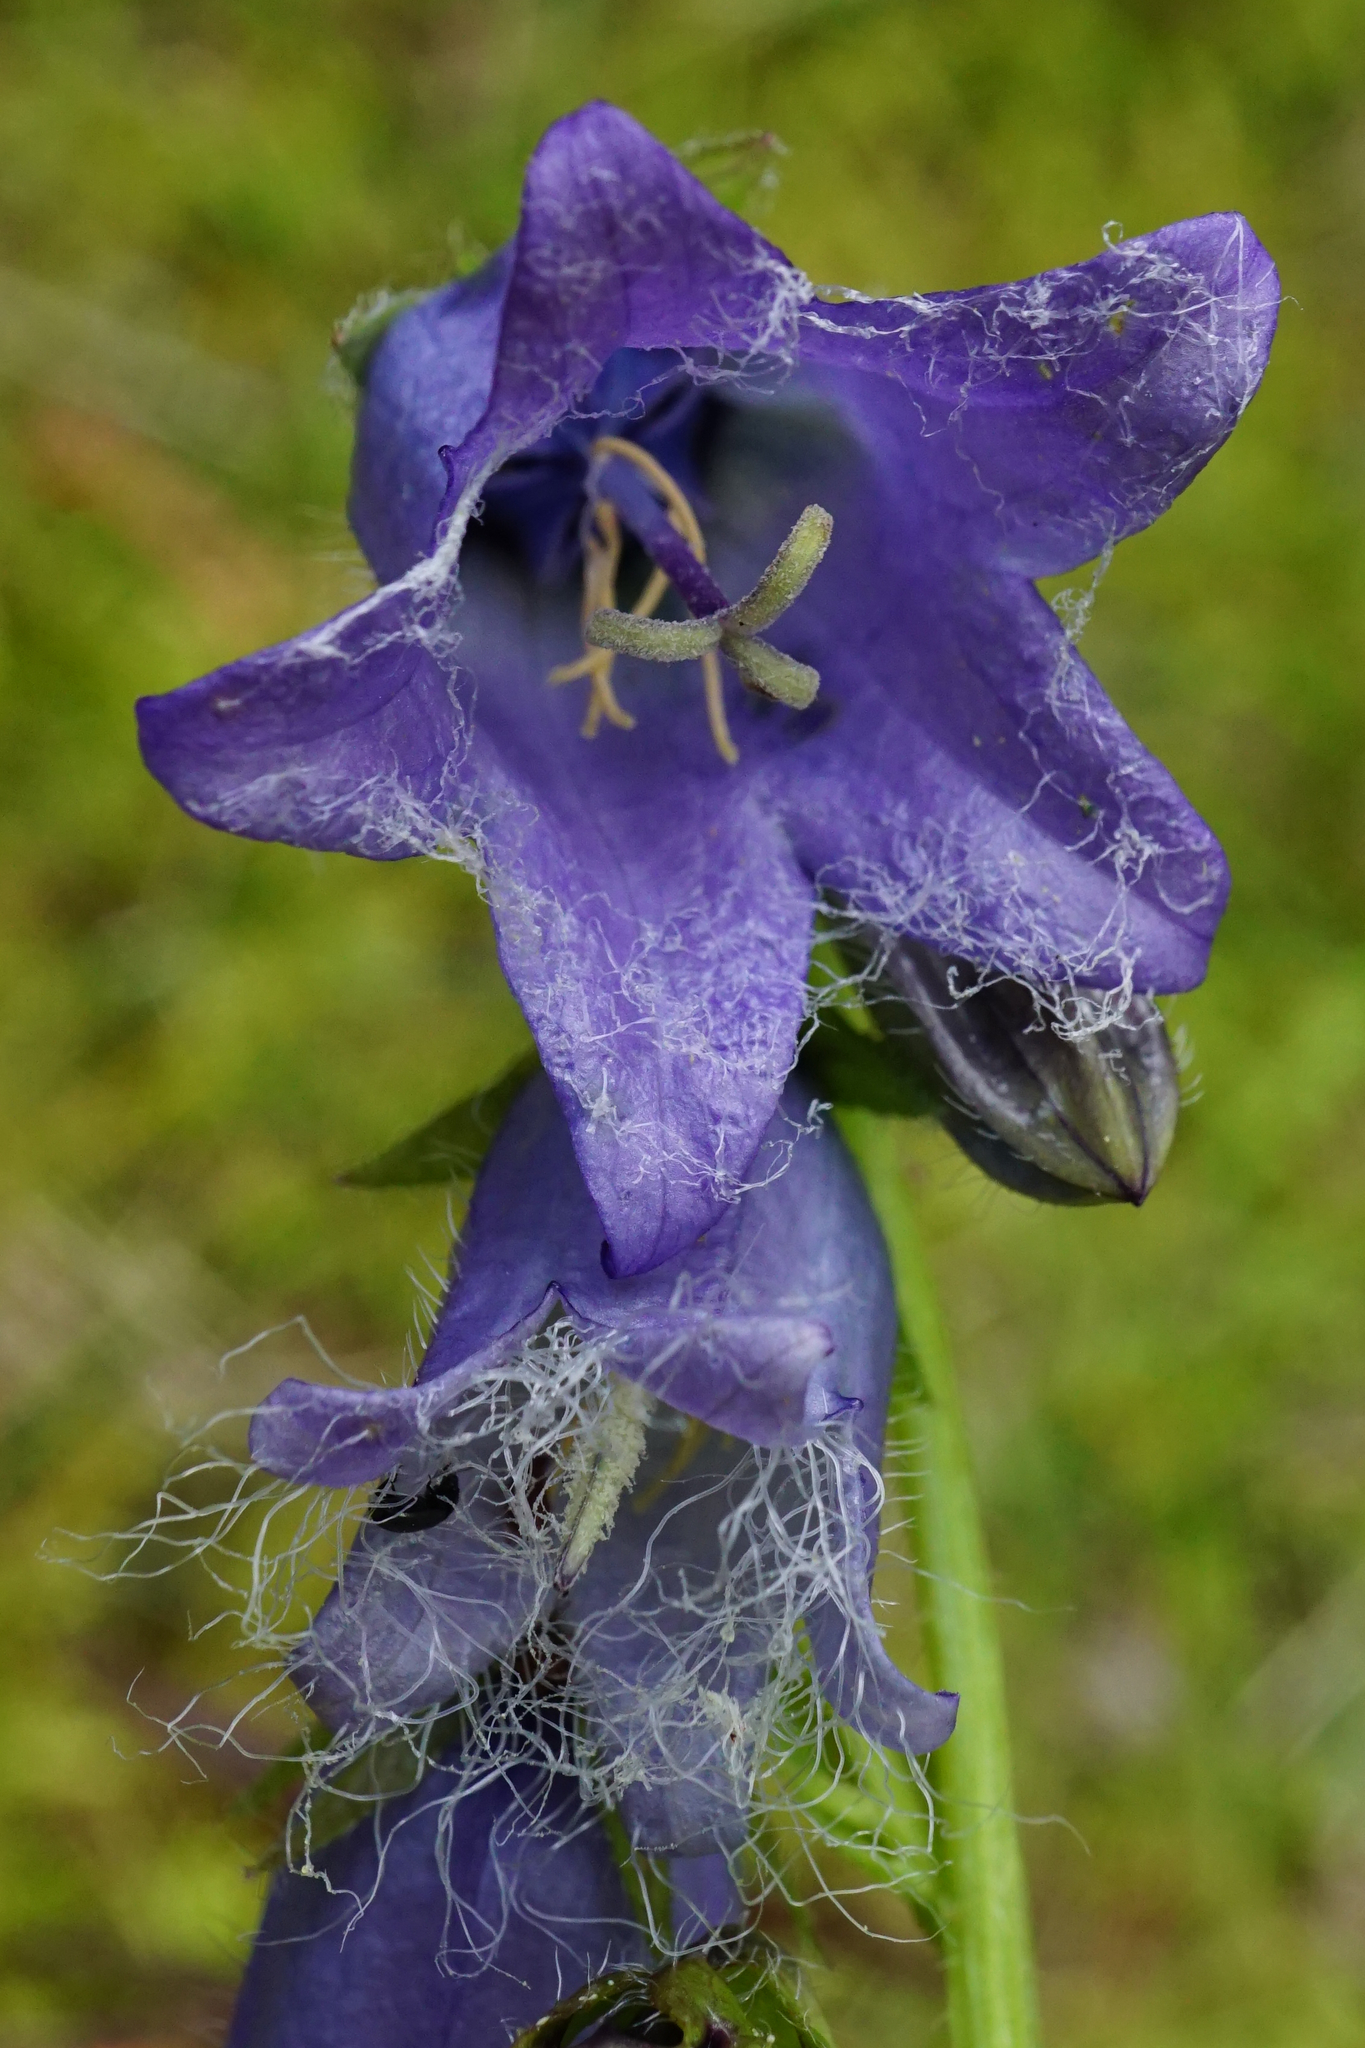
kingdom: Plantae
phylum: Tracheophyta
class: Magnoliopsida
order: Asterales
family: Campanulaceae
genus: Campanula
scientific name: Campanula barbata
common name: Bearded bellflower
